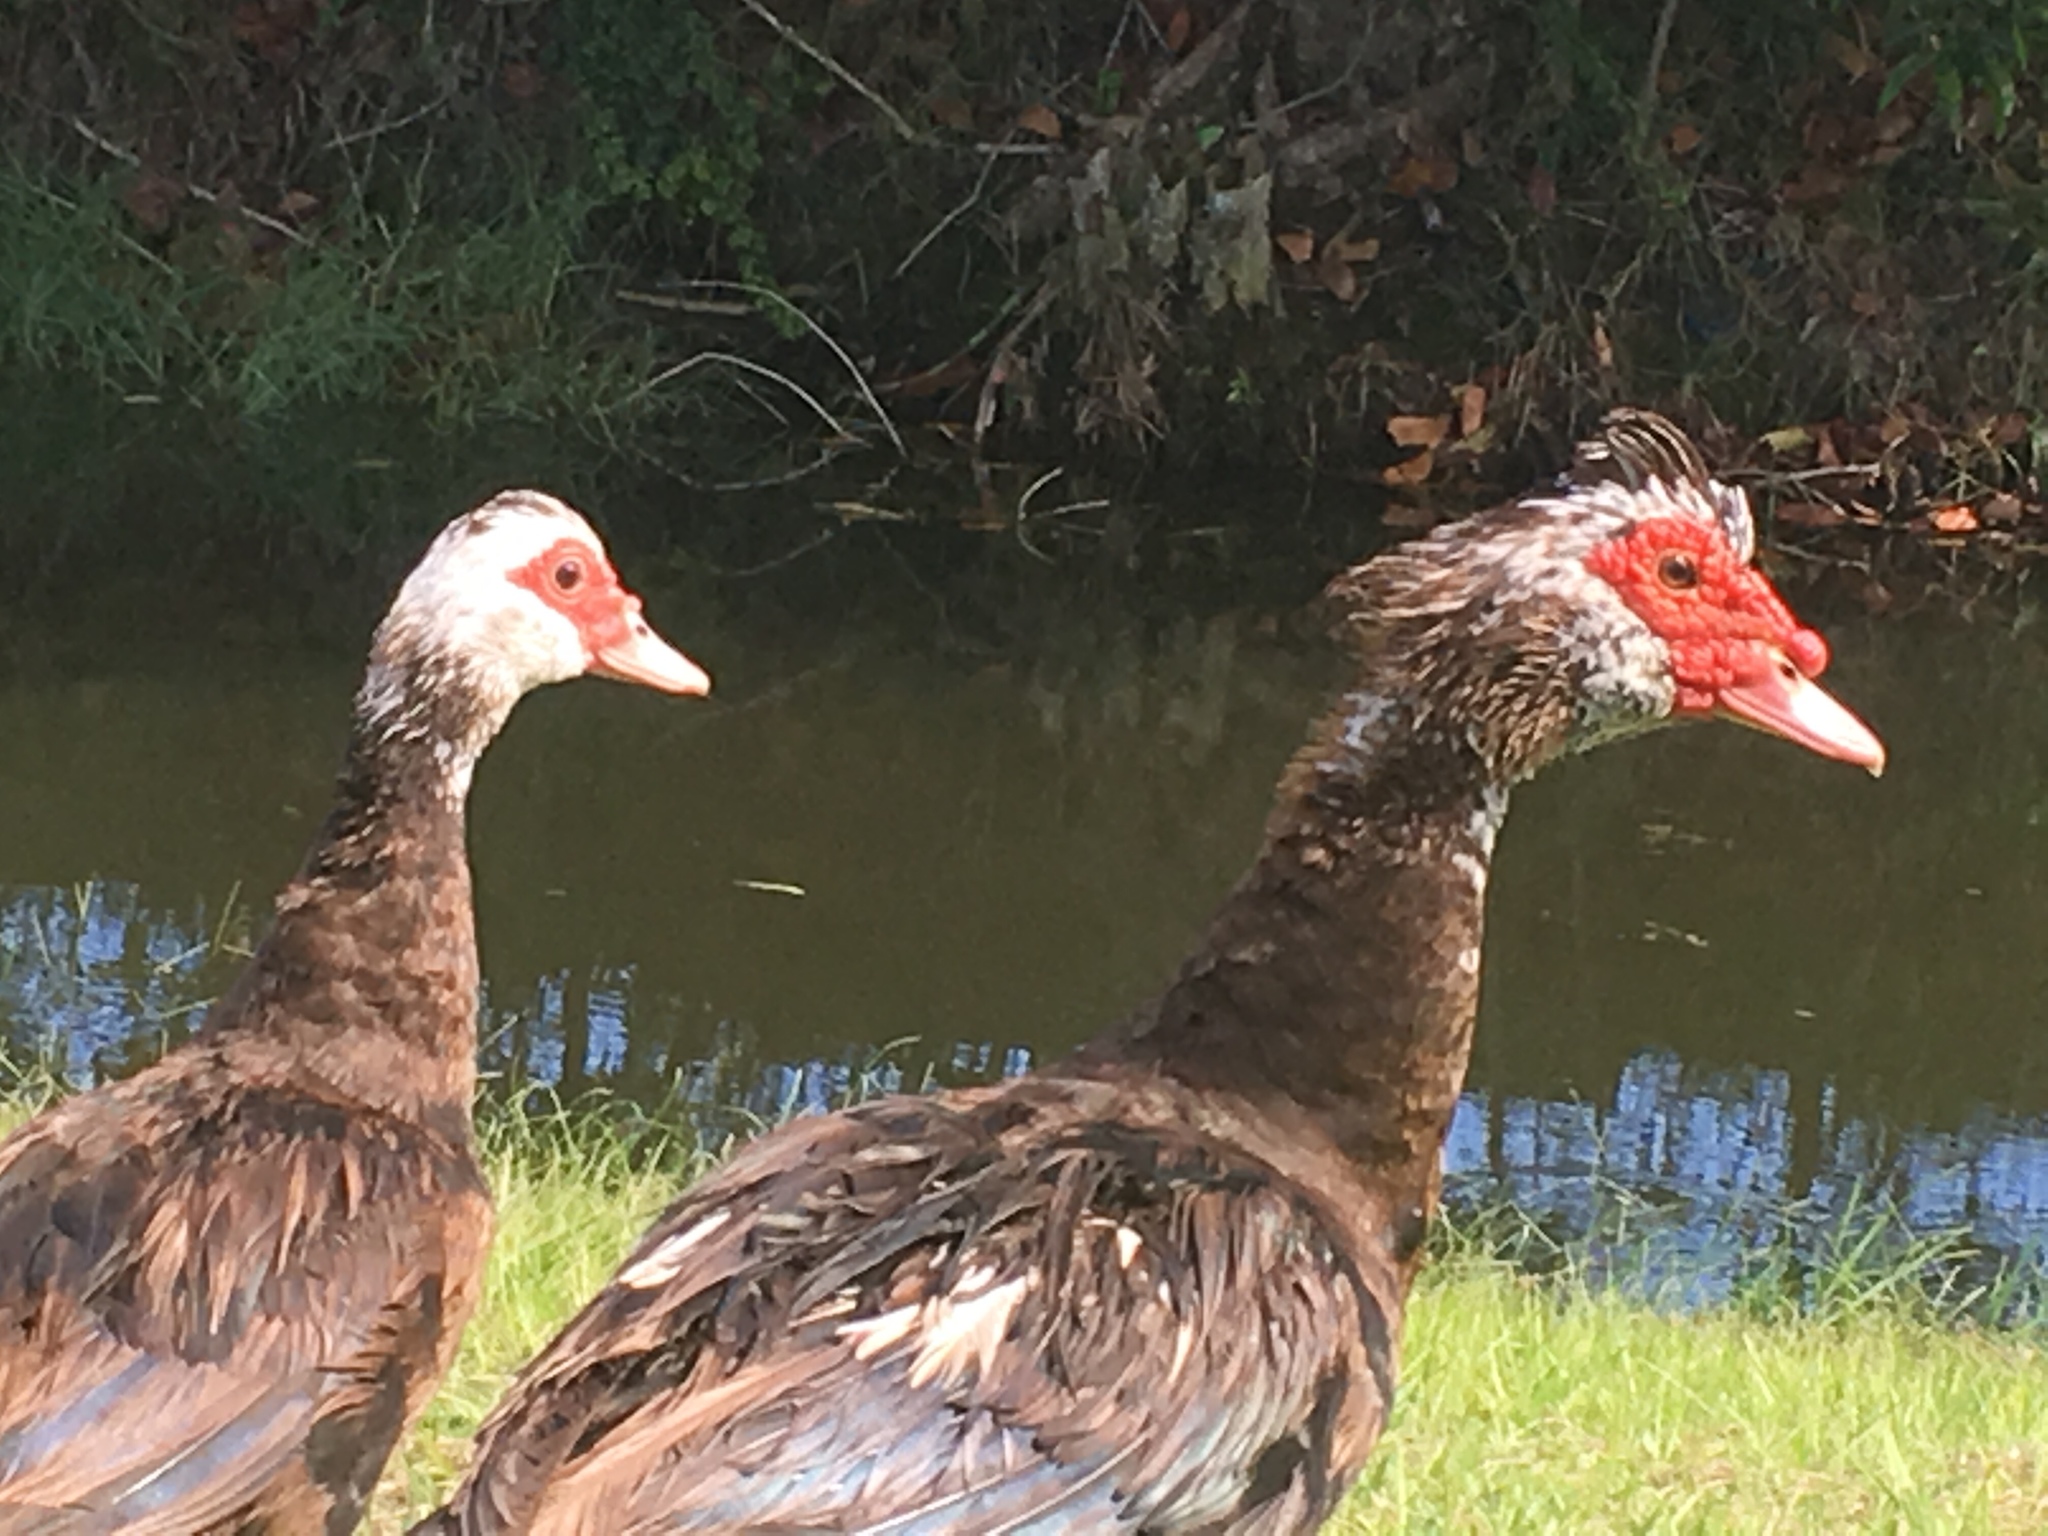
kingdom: Animalia
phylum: Chordata
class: Aves
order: Anseriformes
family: Anatidae
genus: Cairina
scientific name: Cairina moschata
